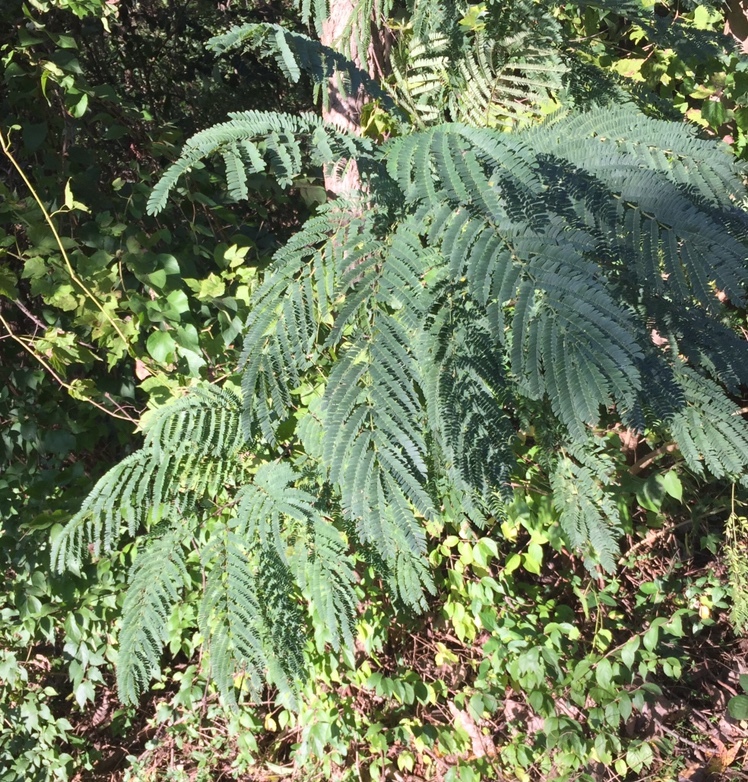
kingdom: Plantae
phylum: Tracheophyta
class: Magnoliopsida
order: Fabales
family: Fabaceae
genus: Albizia
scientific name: Albizia julibrissin
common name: Silktree
